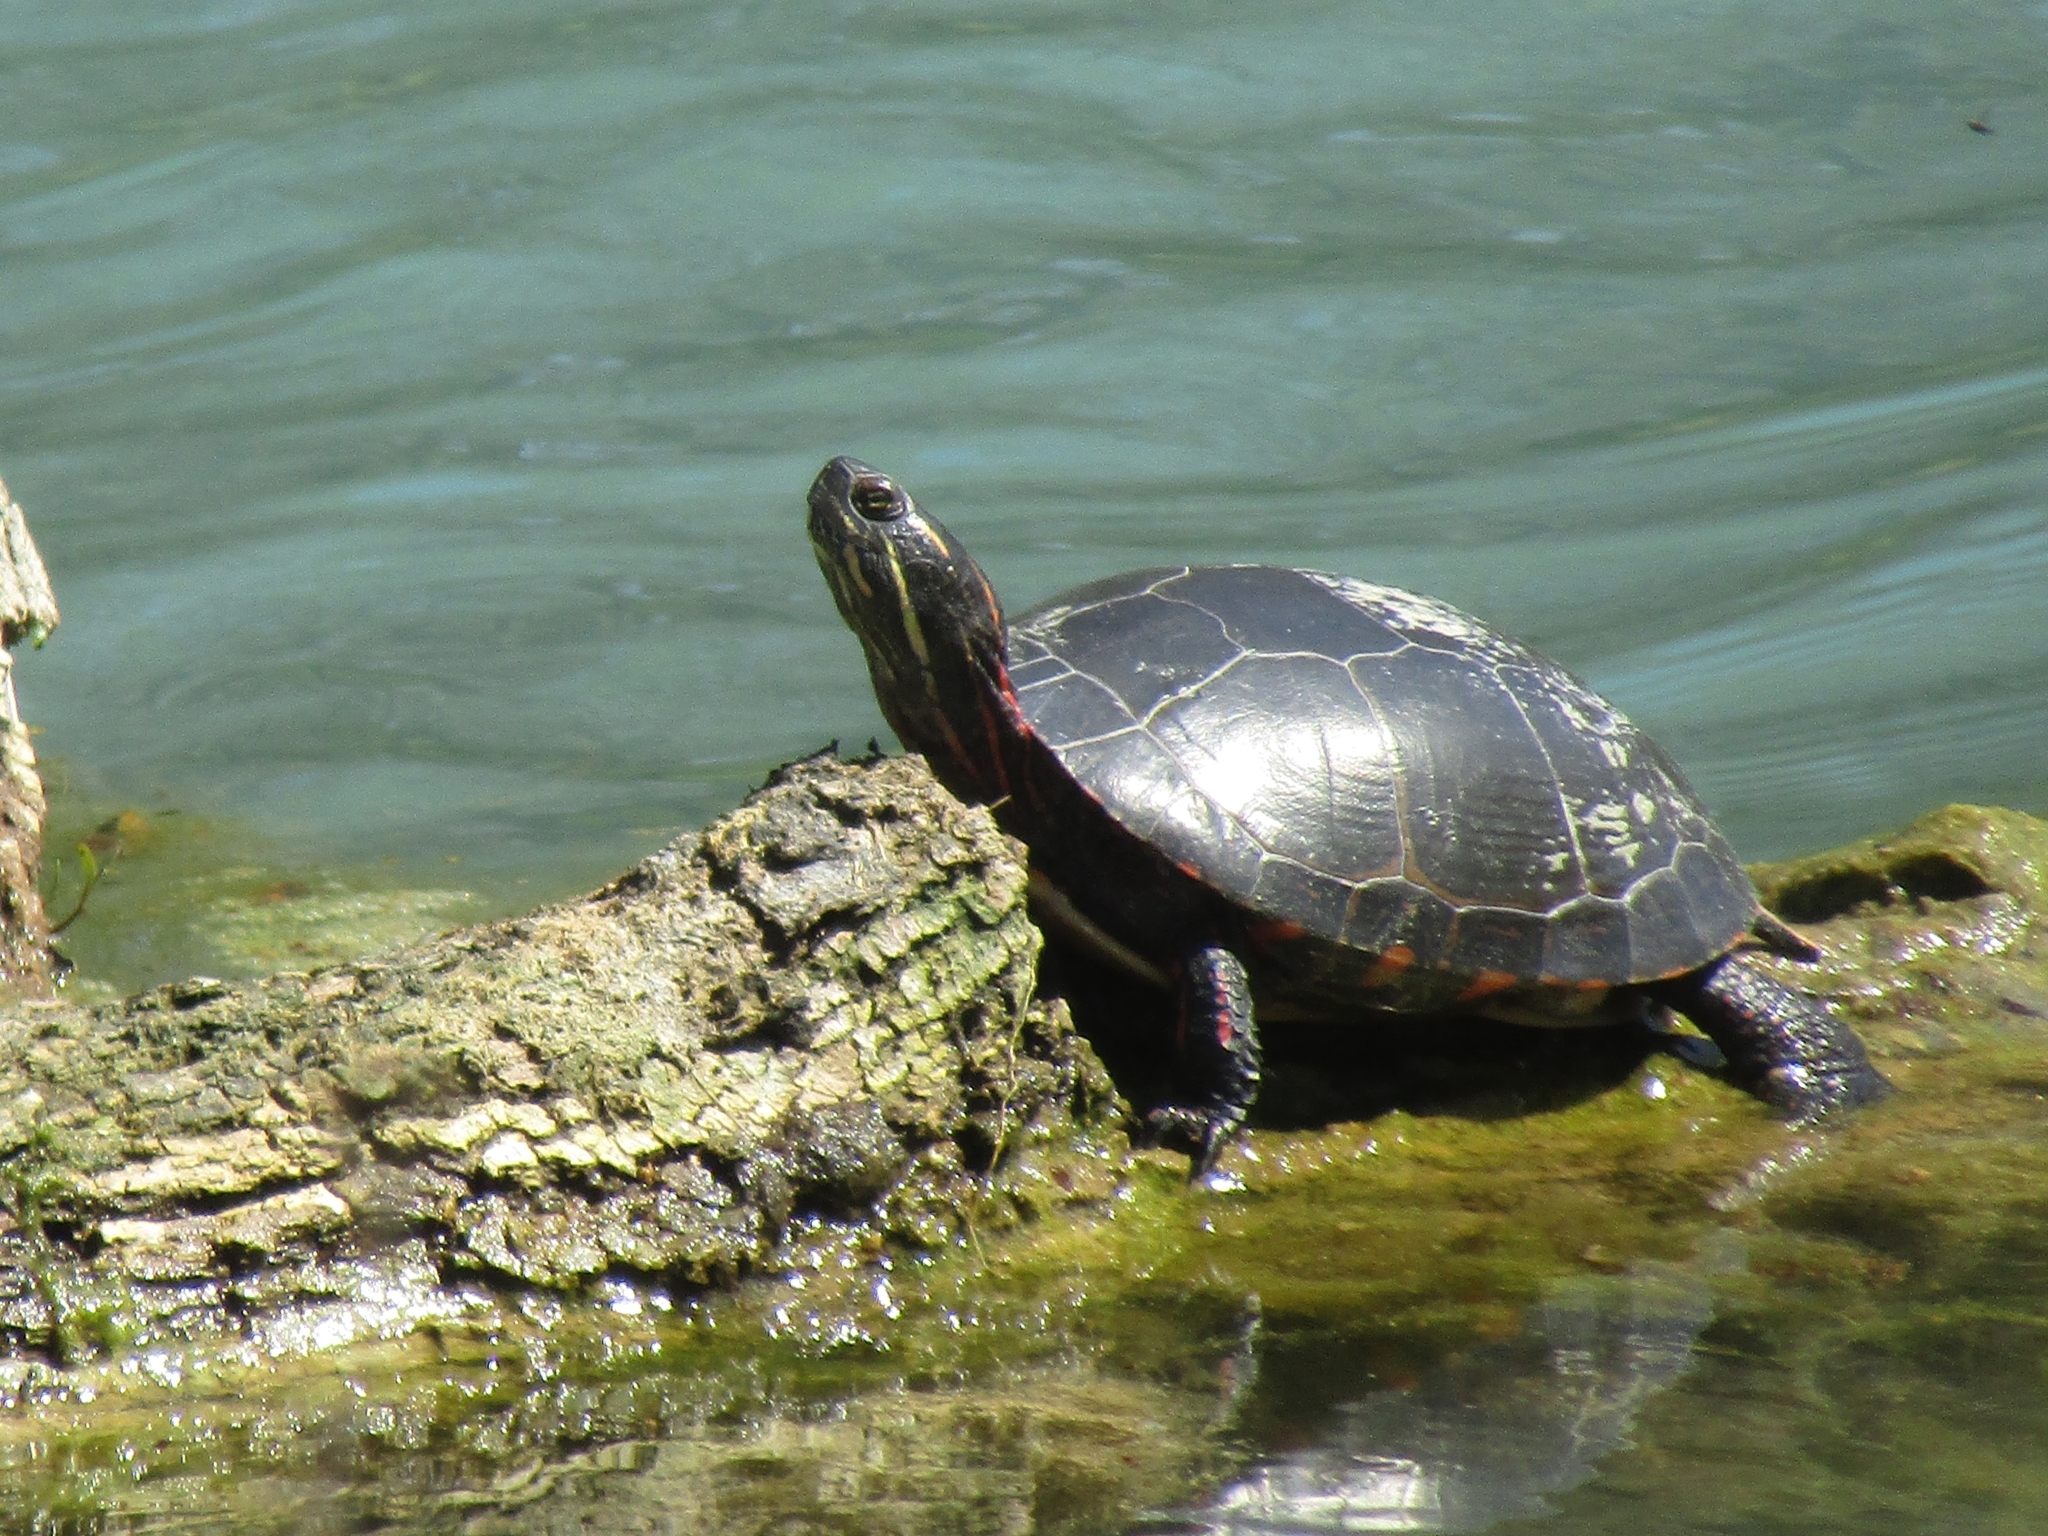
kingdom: Animalia
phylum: Chordata
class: Testudines
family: Emydidae
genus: Chrysemys
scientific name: Chrysemys picta
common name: Painted turtle
